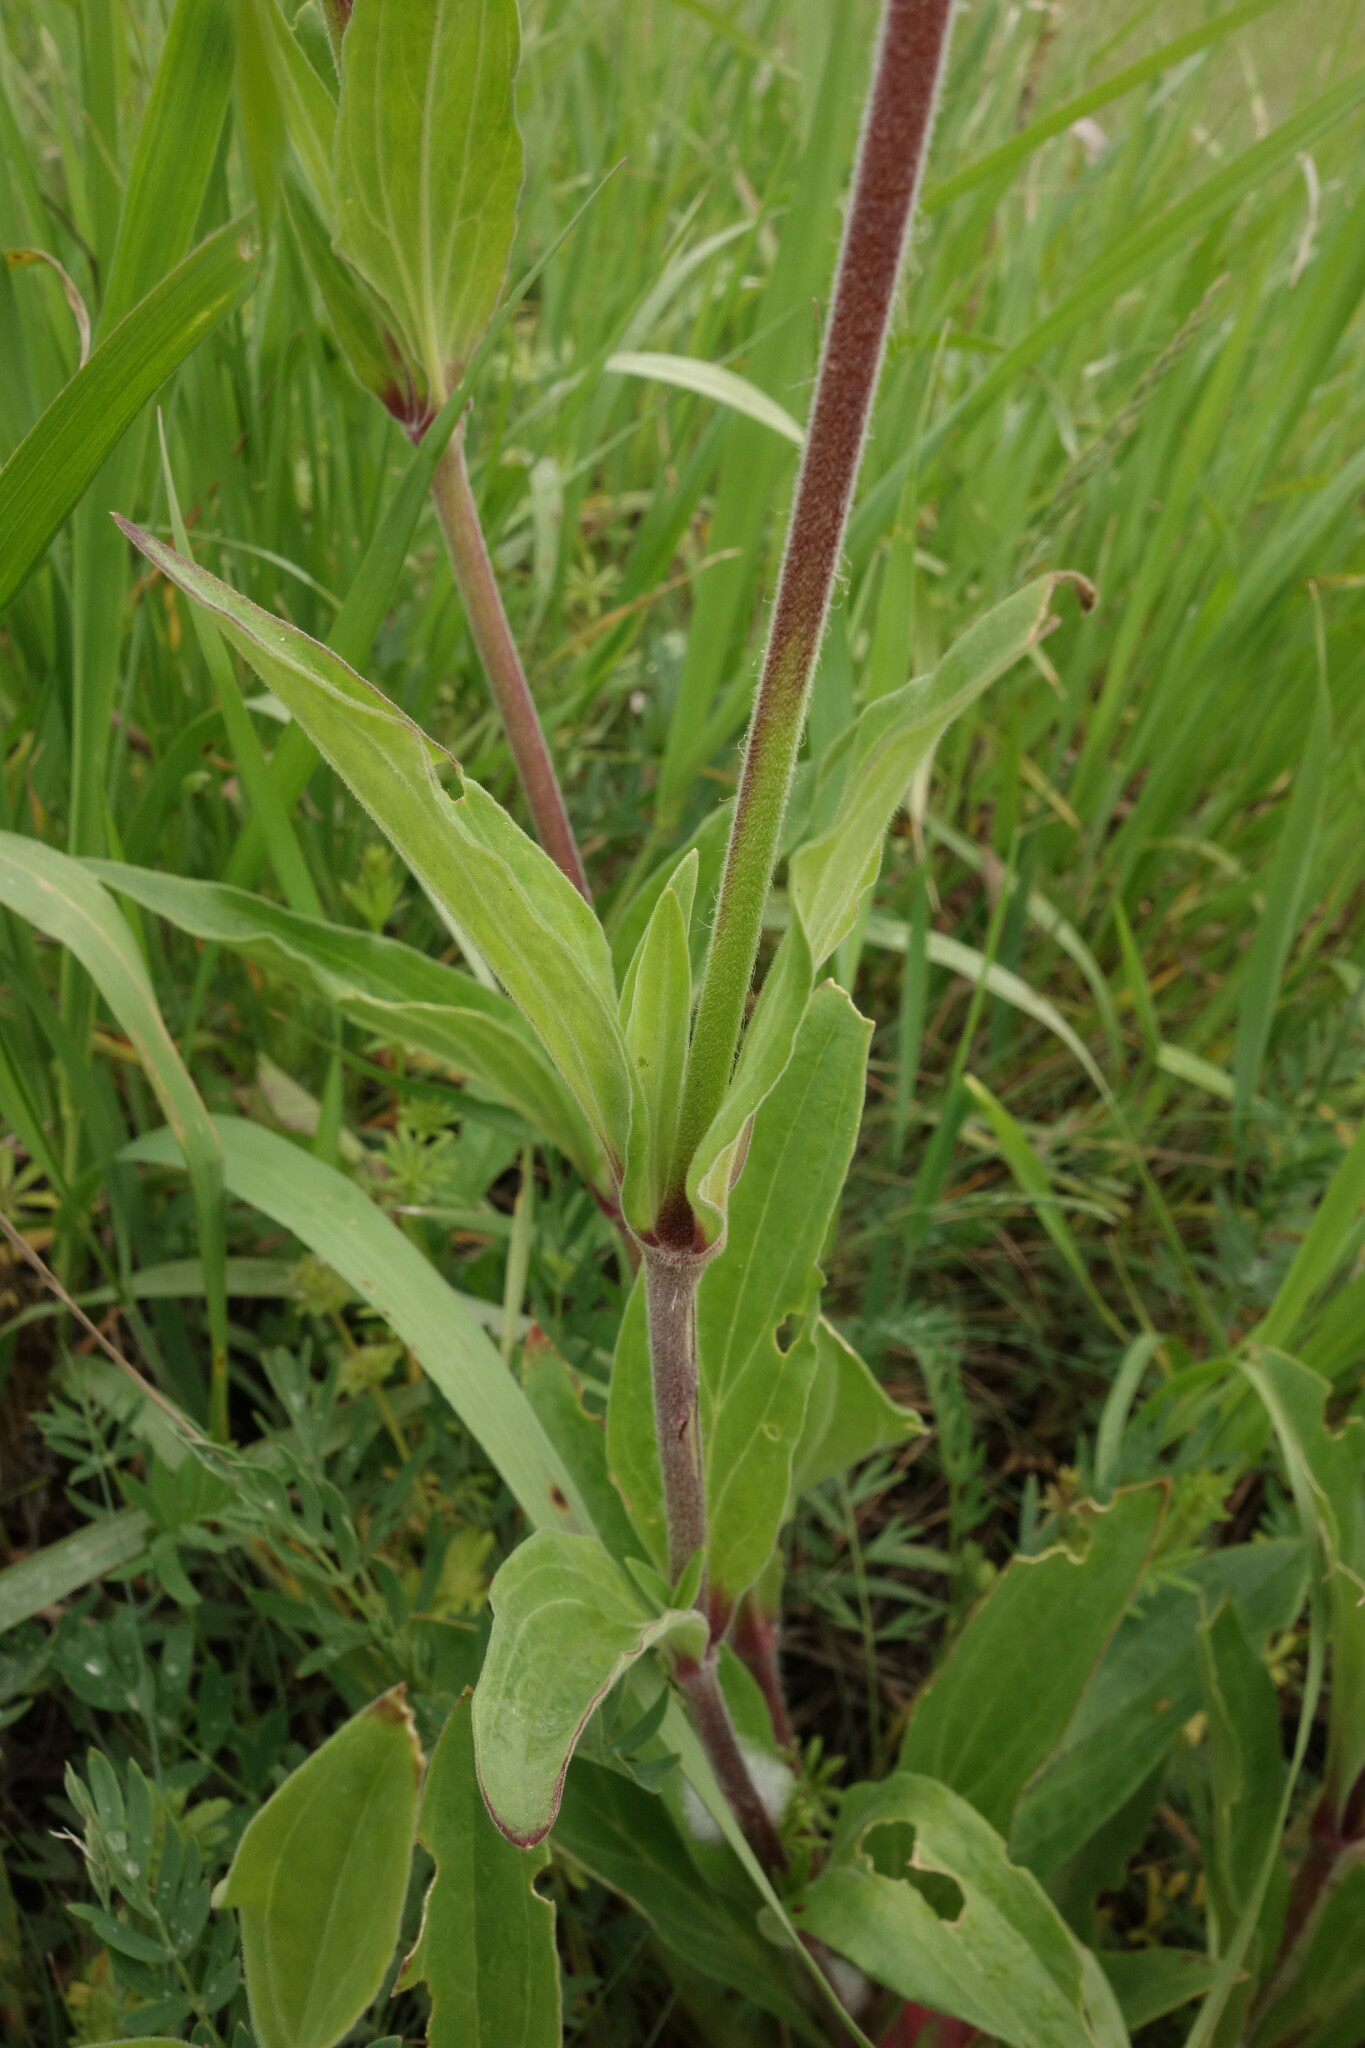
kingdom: Plantae
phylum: Tracheophyta
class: Magnoliopsida
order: Caryophyllales
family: Caryophyllaceae
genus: Silene
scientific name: Silene latifolia
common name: White campion
